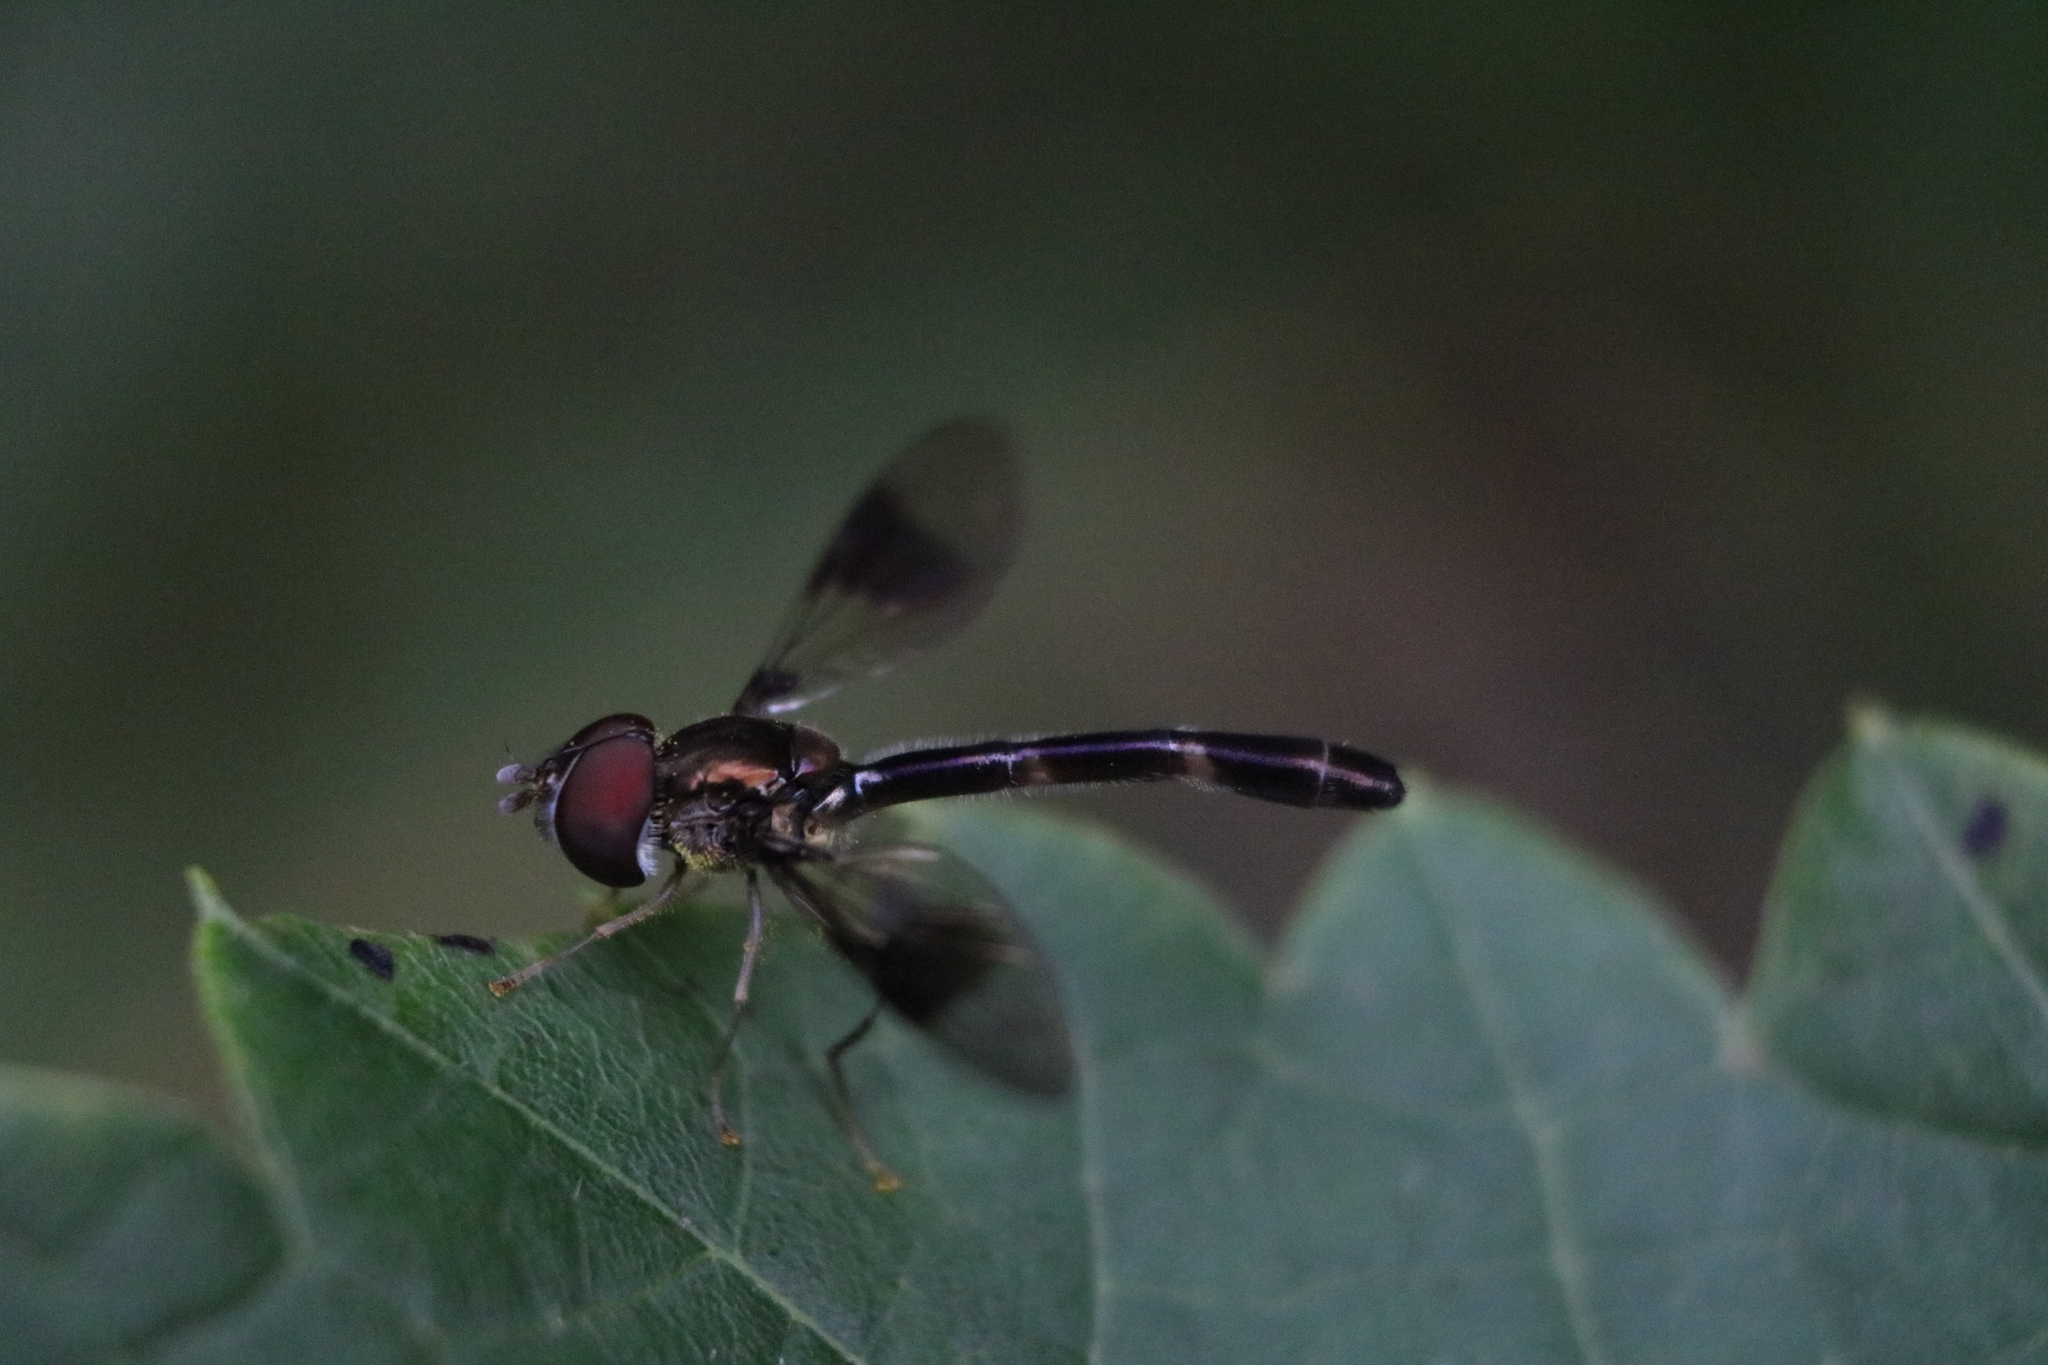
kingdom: Animalia
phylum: Arthropoda
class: Insecta
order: Diptera
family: Syrphidae
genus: Hypocritanus
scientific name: Hypocritanus fascipennis
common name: Eastern band-winged hover fly
